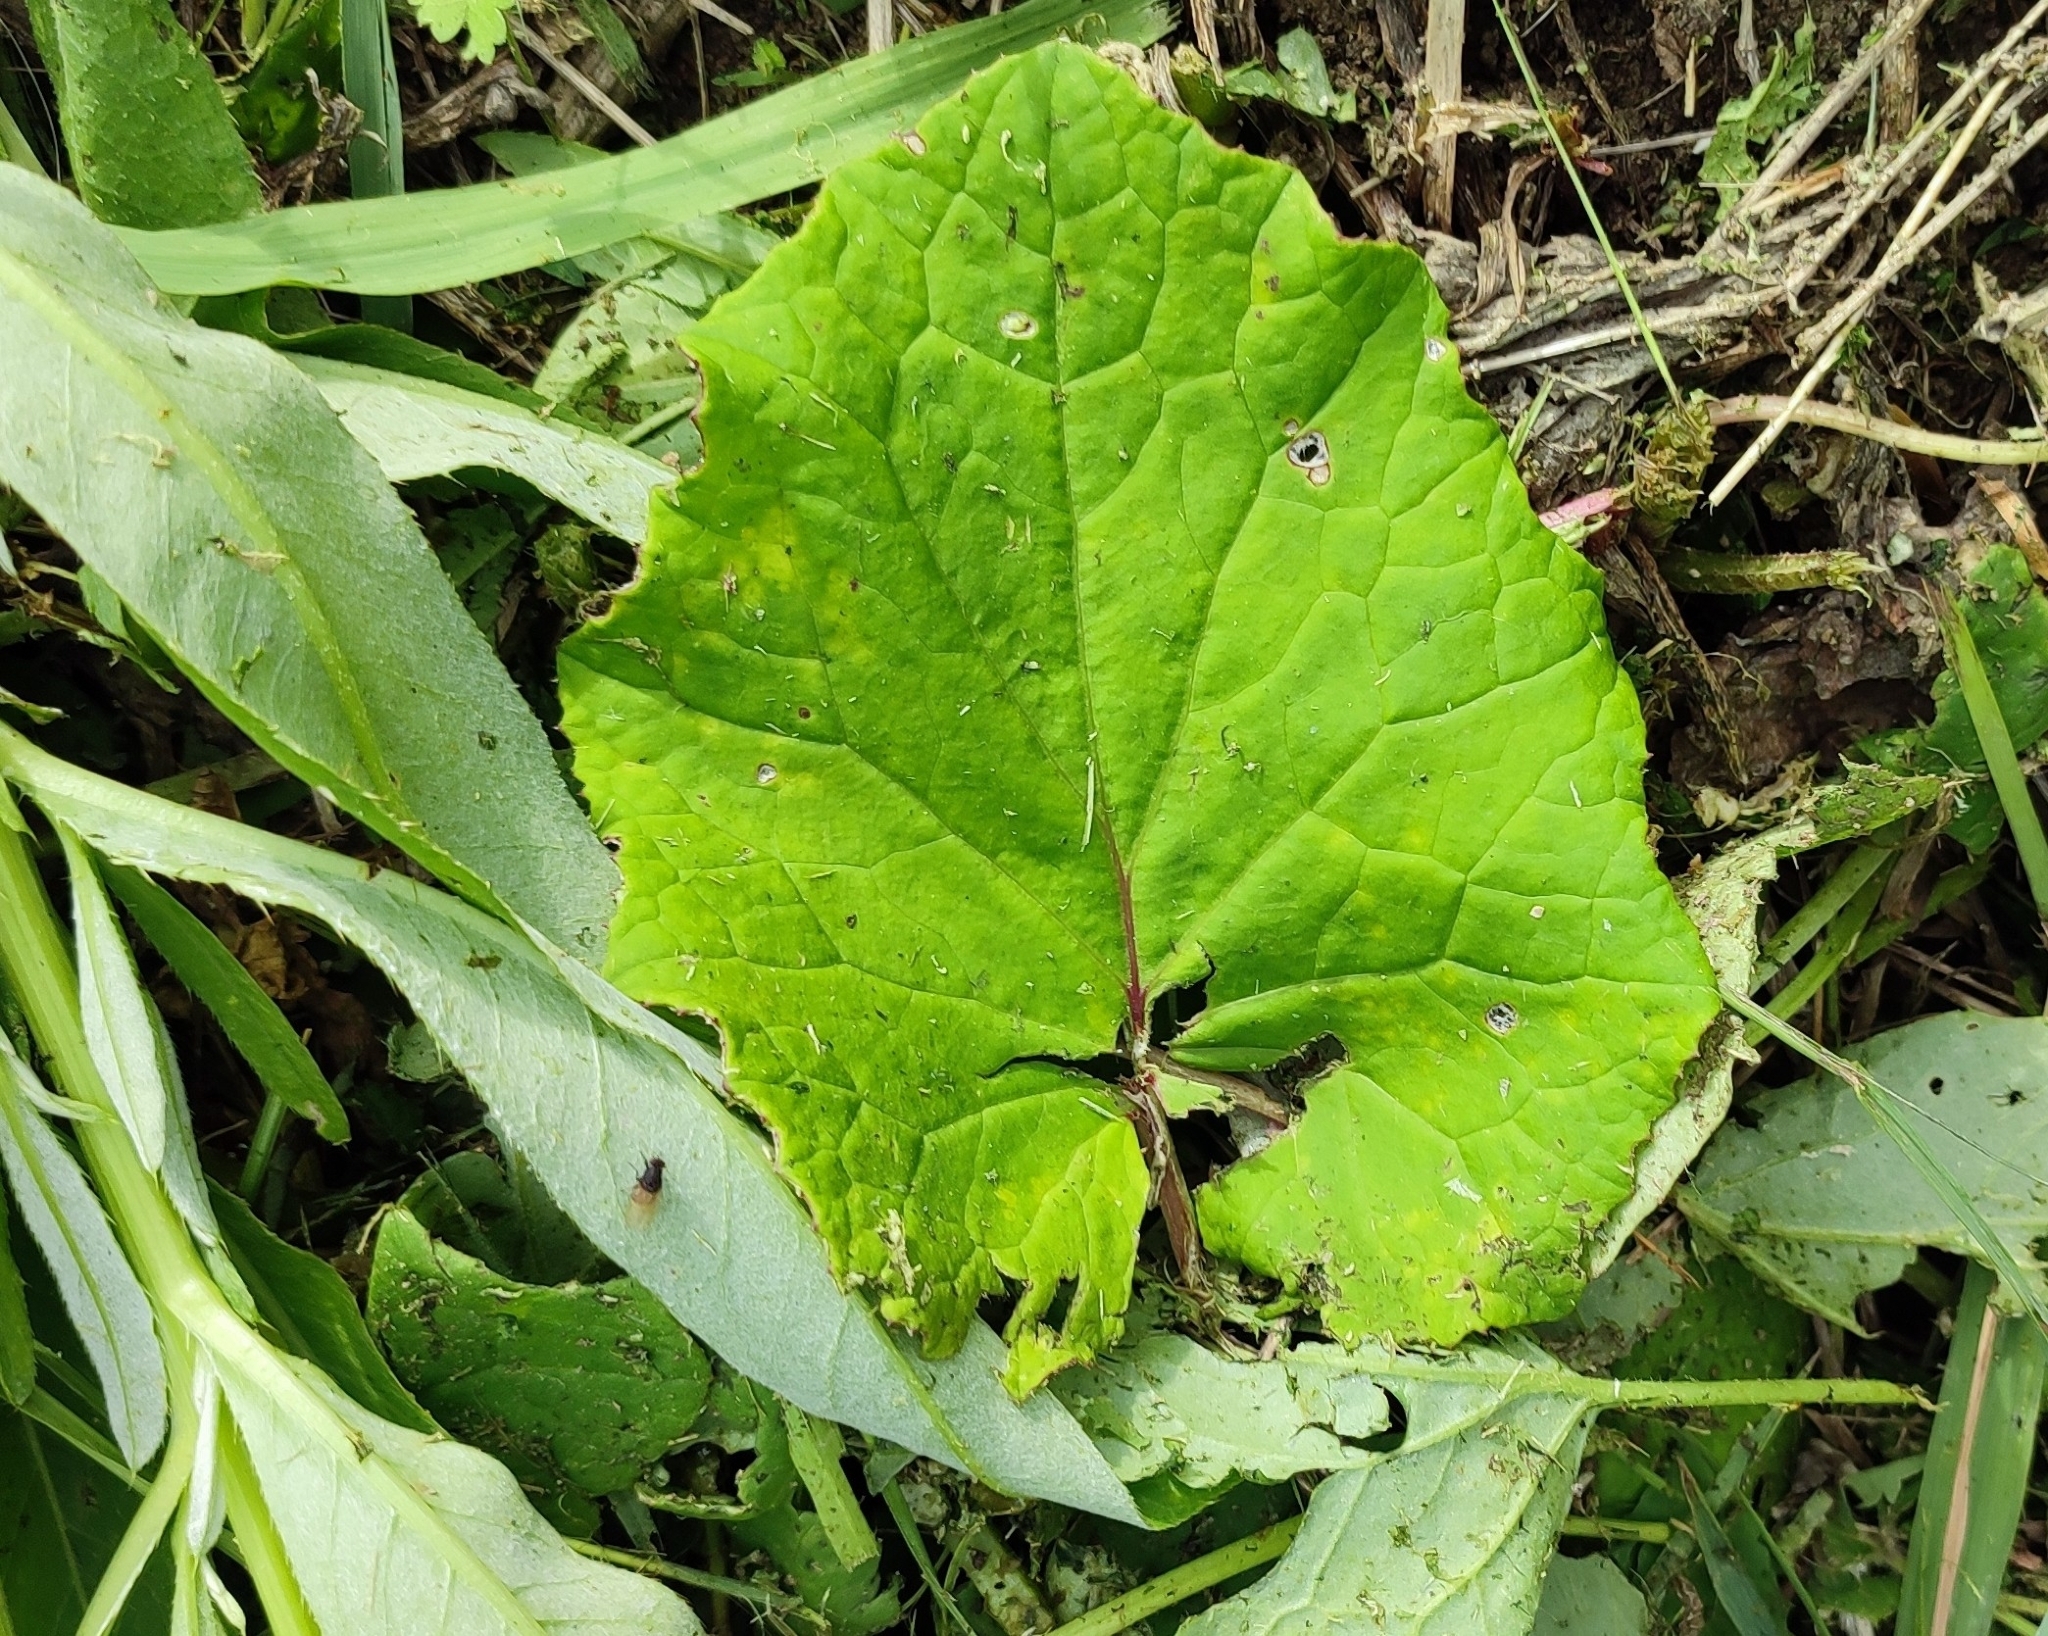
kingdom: Plantae
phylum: Tracheophyta
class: Magnoliopsida
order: Asterales
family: Asteraceae
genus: Tussilago
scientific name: Tussilago farfara
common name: Coltsfoot
